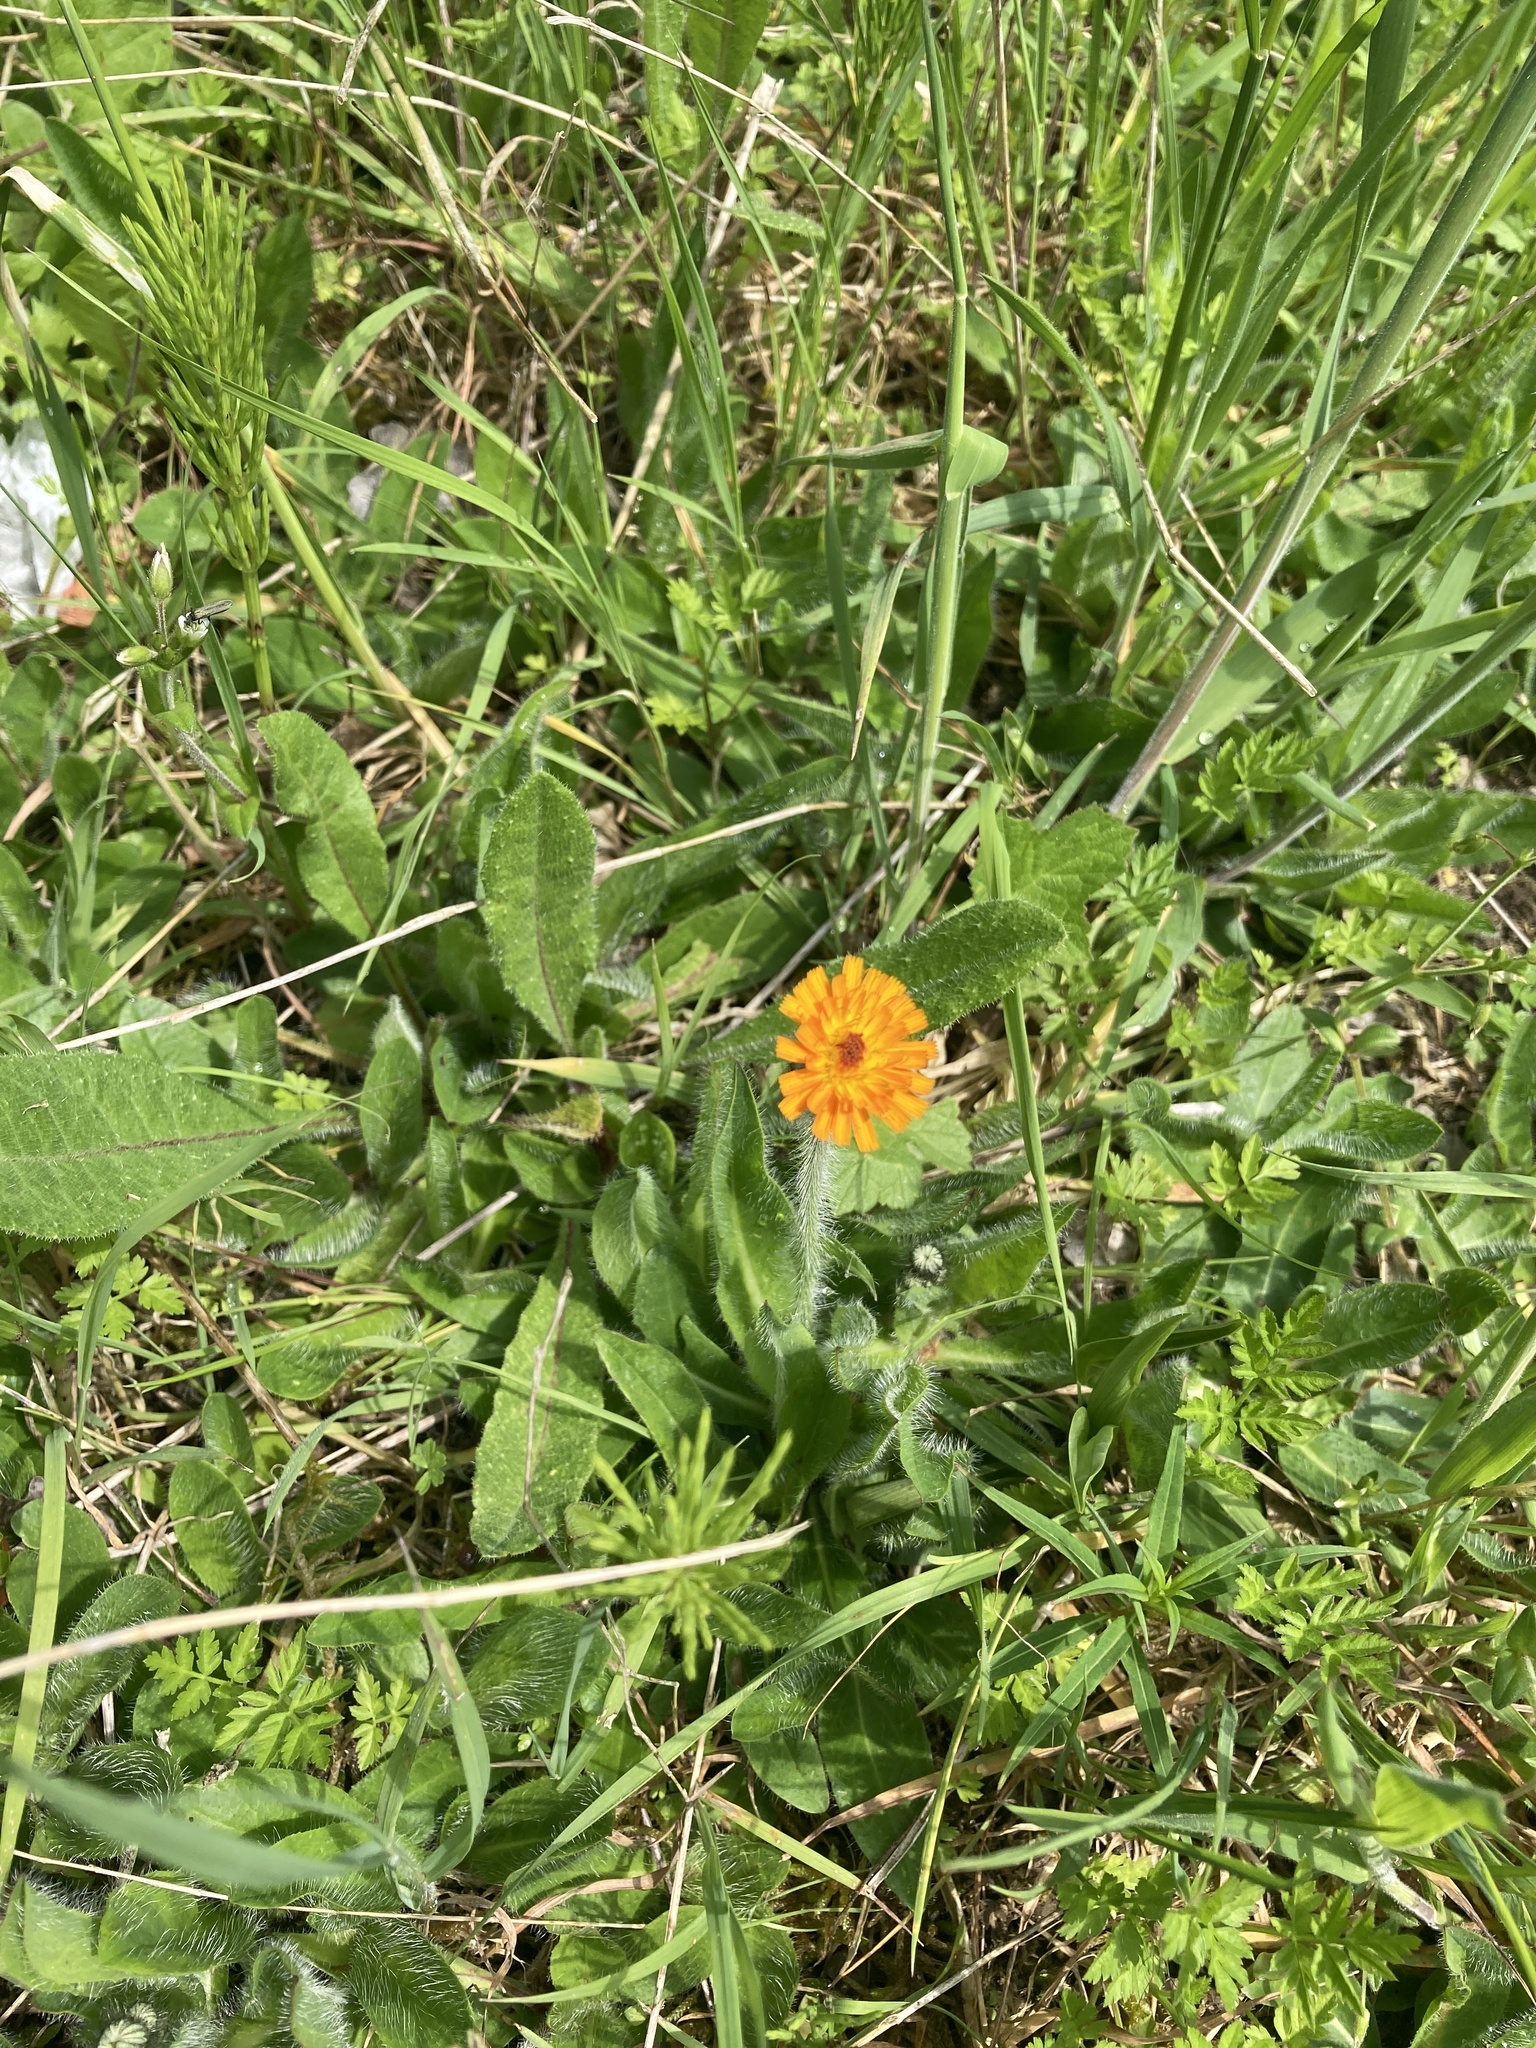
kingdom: Plantae
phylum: Tracheophyta
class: Magnoliopsida
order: Asterales
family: Asteraceae
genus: Pilosella
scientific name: Pilosella aurantiaca
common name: Fox-and-cubs
